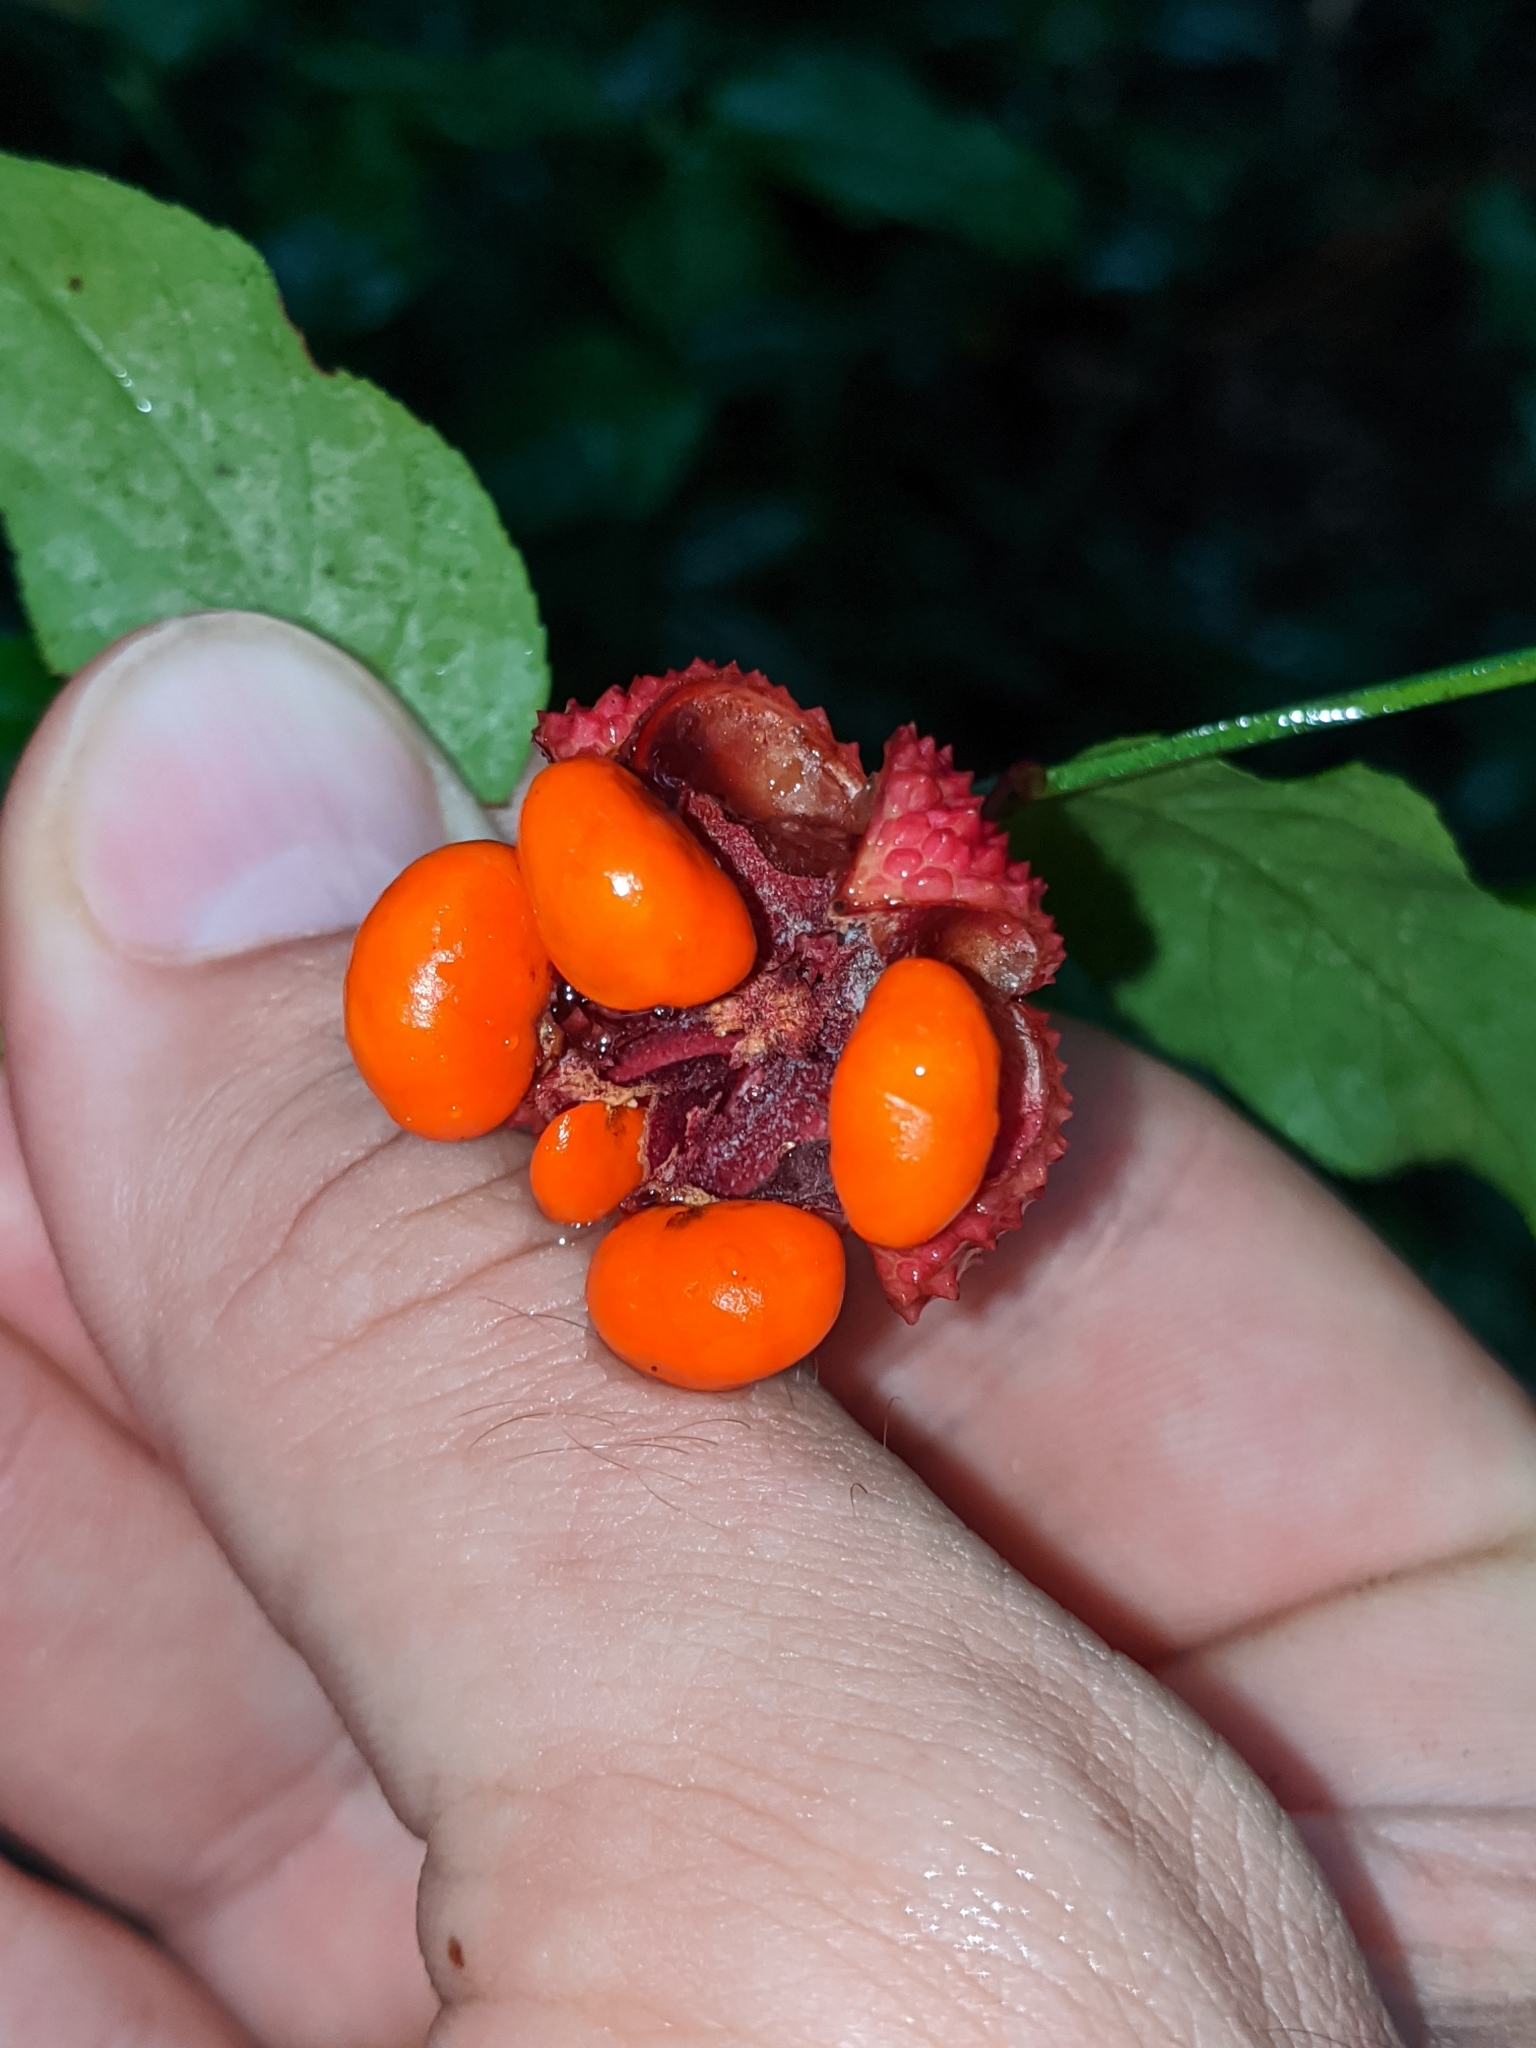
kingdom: Plantae
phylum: Tracheophyta
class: Magnoliopsida
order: Celastrales
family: Celastraceae
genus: Euonymus
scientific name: Euonymus americanus
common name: Bursting-heart
